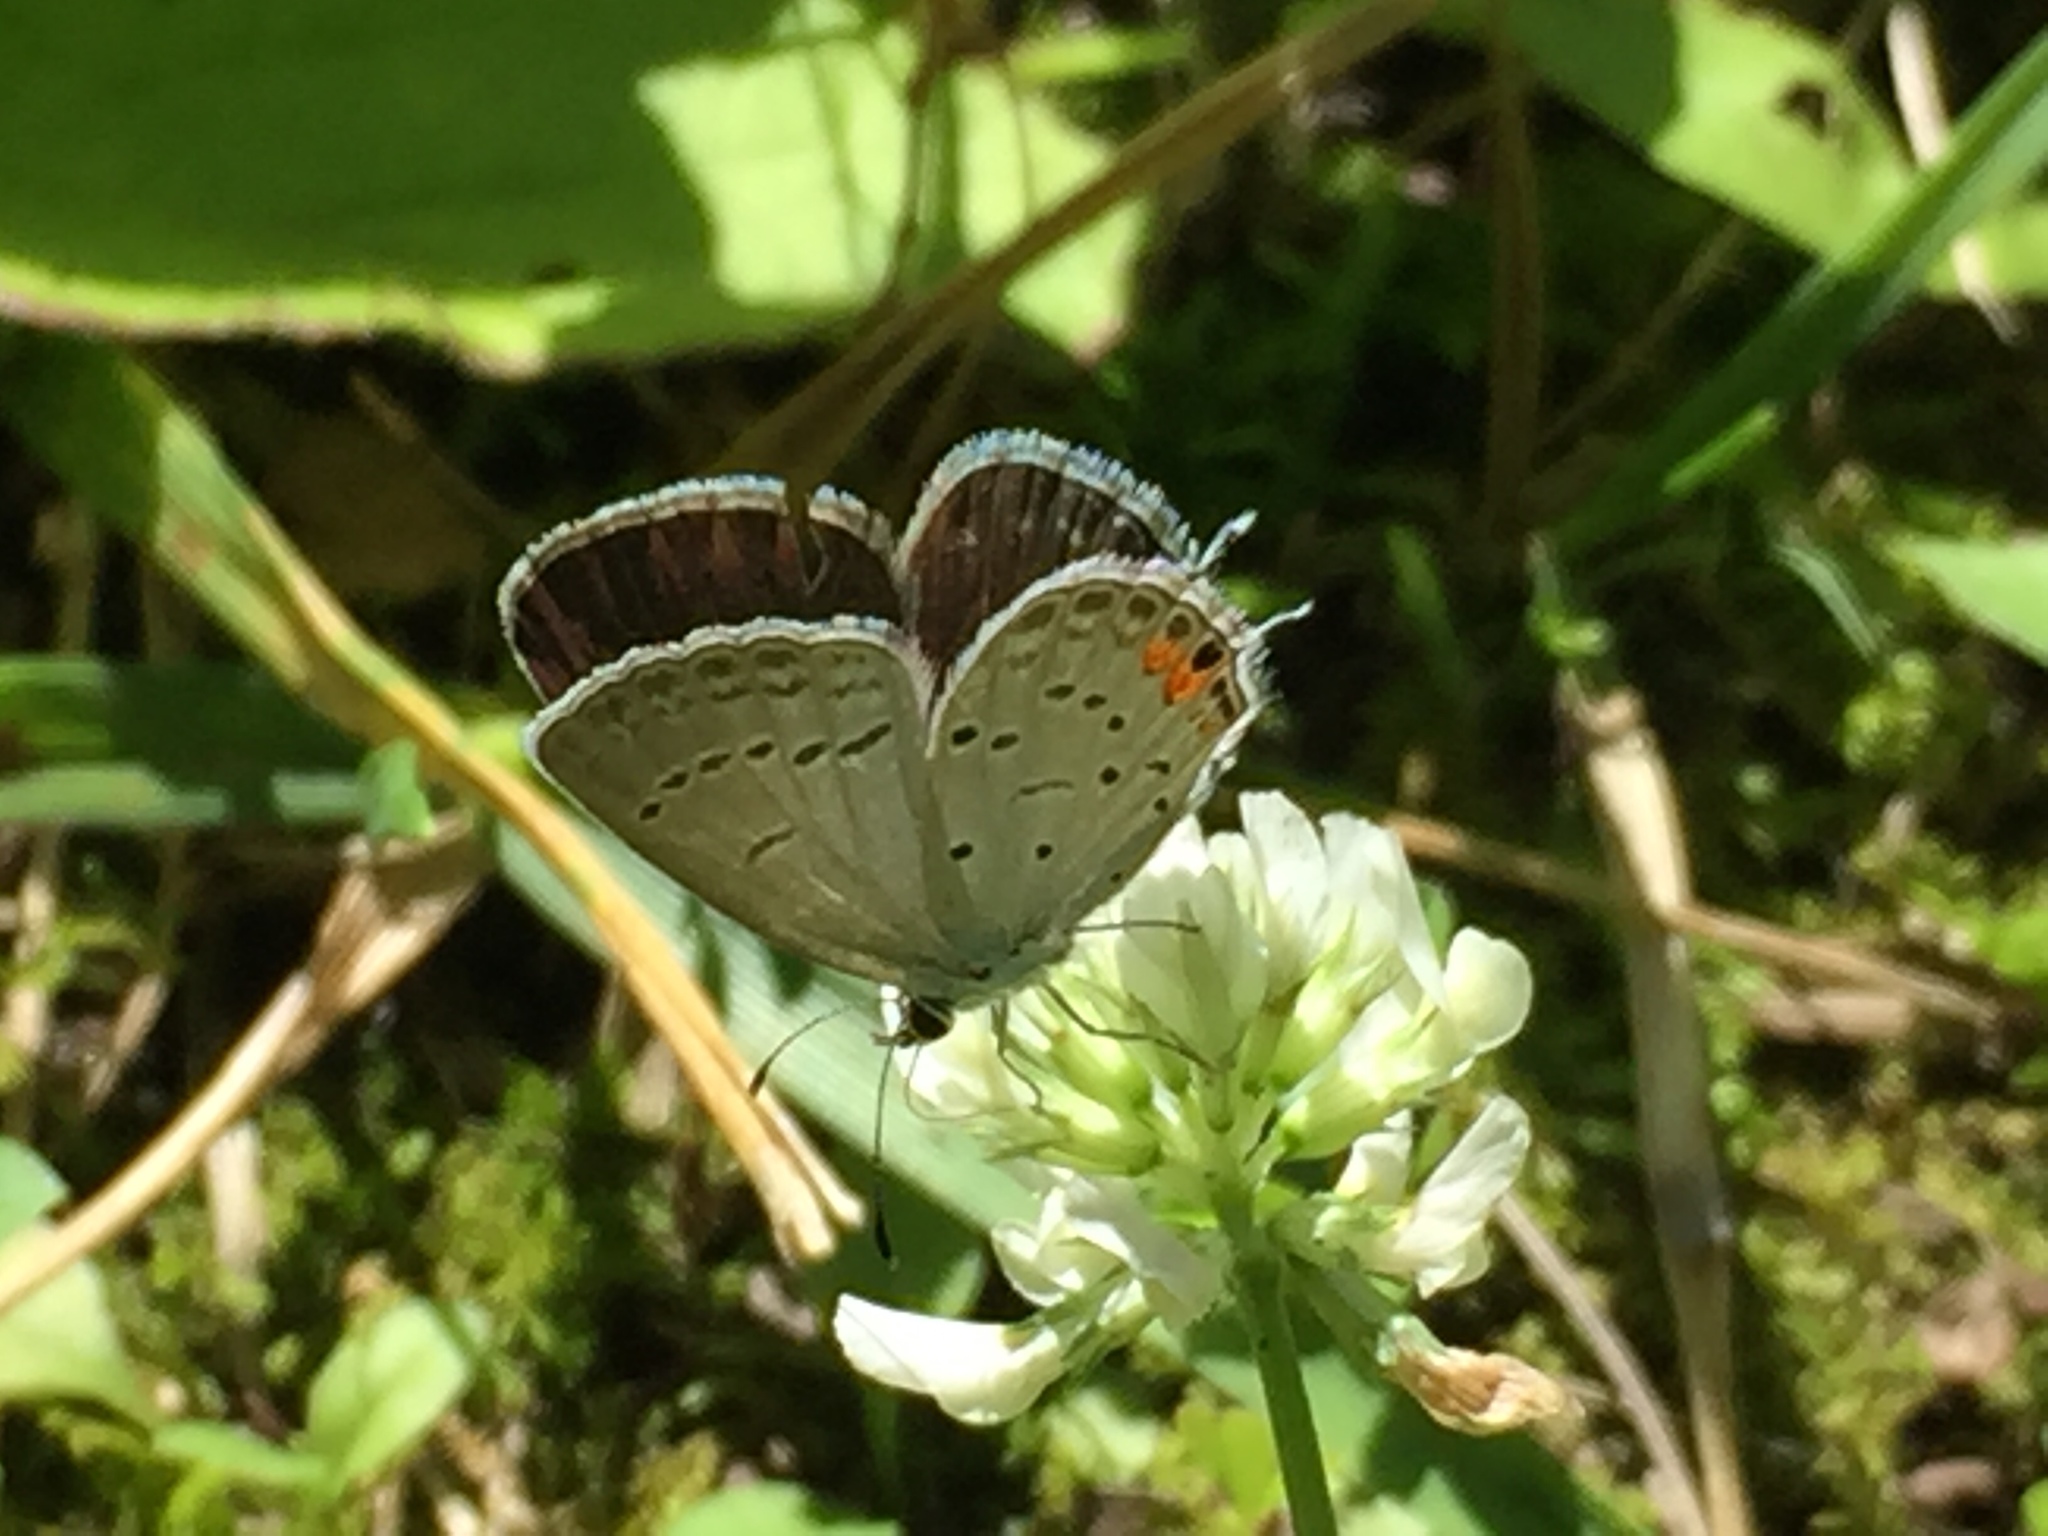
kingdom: Animalia
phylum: Arthropoda
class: Insecta
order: Lepidoptera
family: Lycaenidae
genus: Elkalyce
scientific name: Elkalyce comyntas
